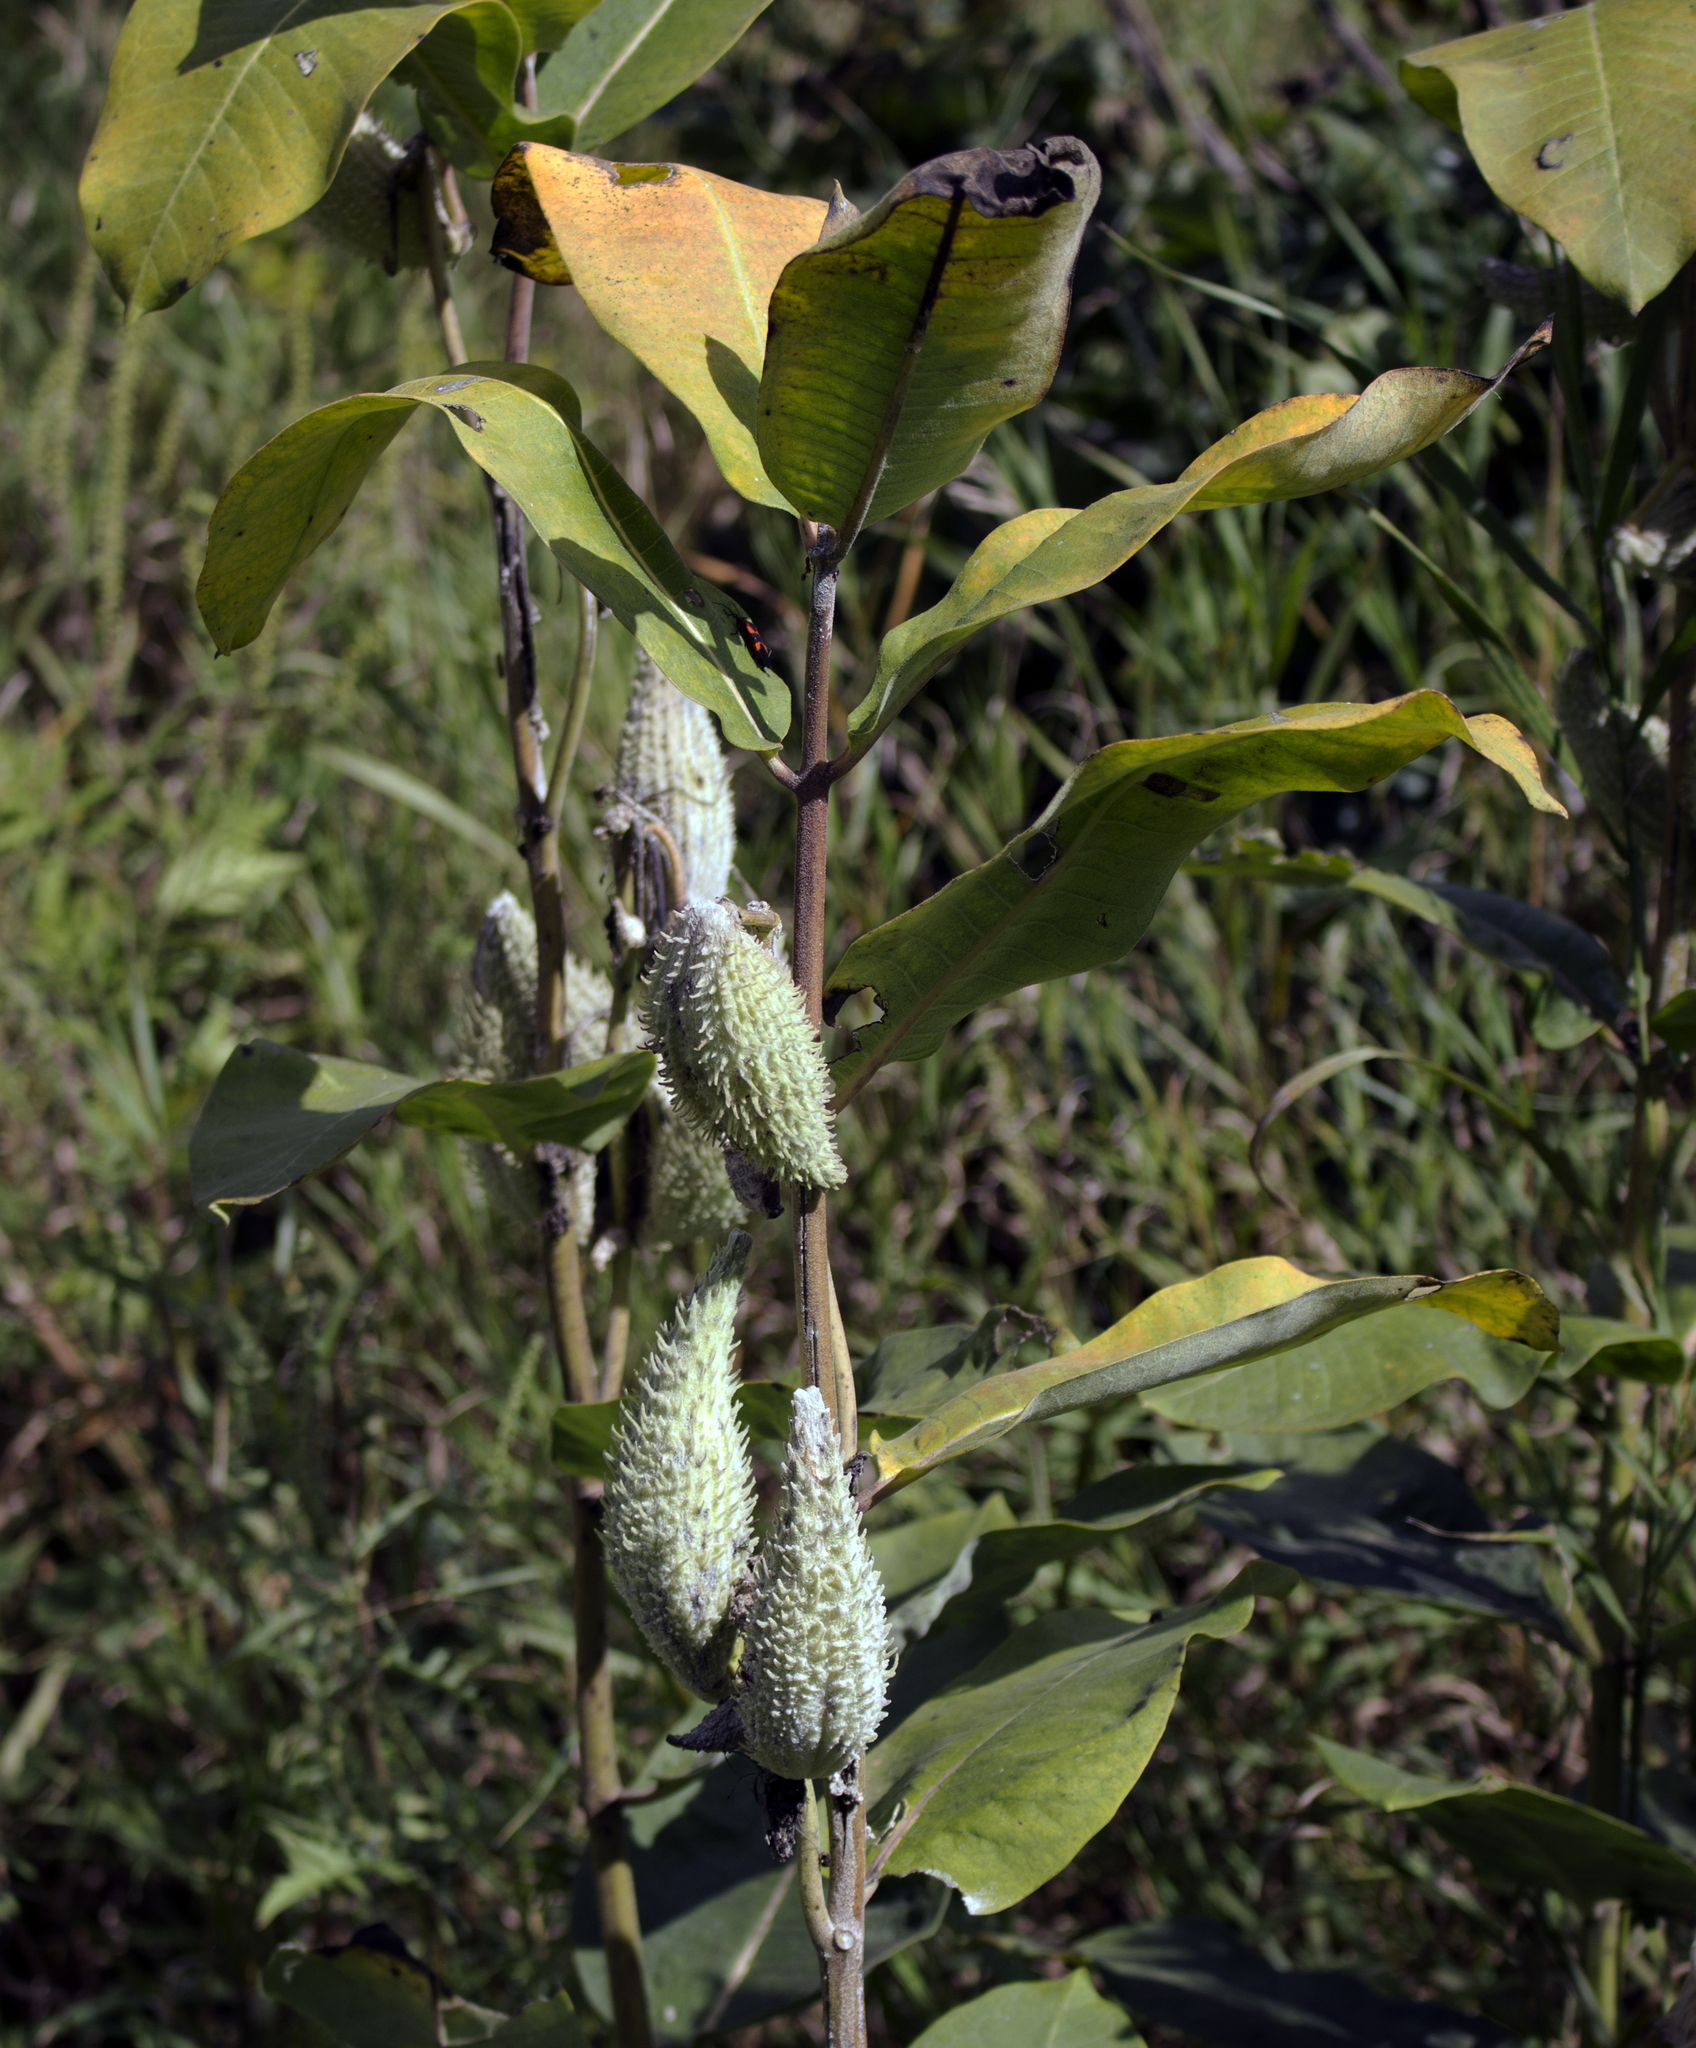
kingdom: Plantae
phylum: Tracheophyta
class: Magnoliopsida
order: Gentianales
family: Apocynaceae
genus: Asclepias
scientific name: Asclepias syriaca
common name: Common milkweed
